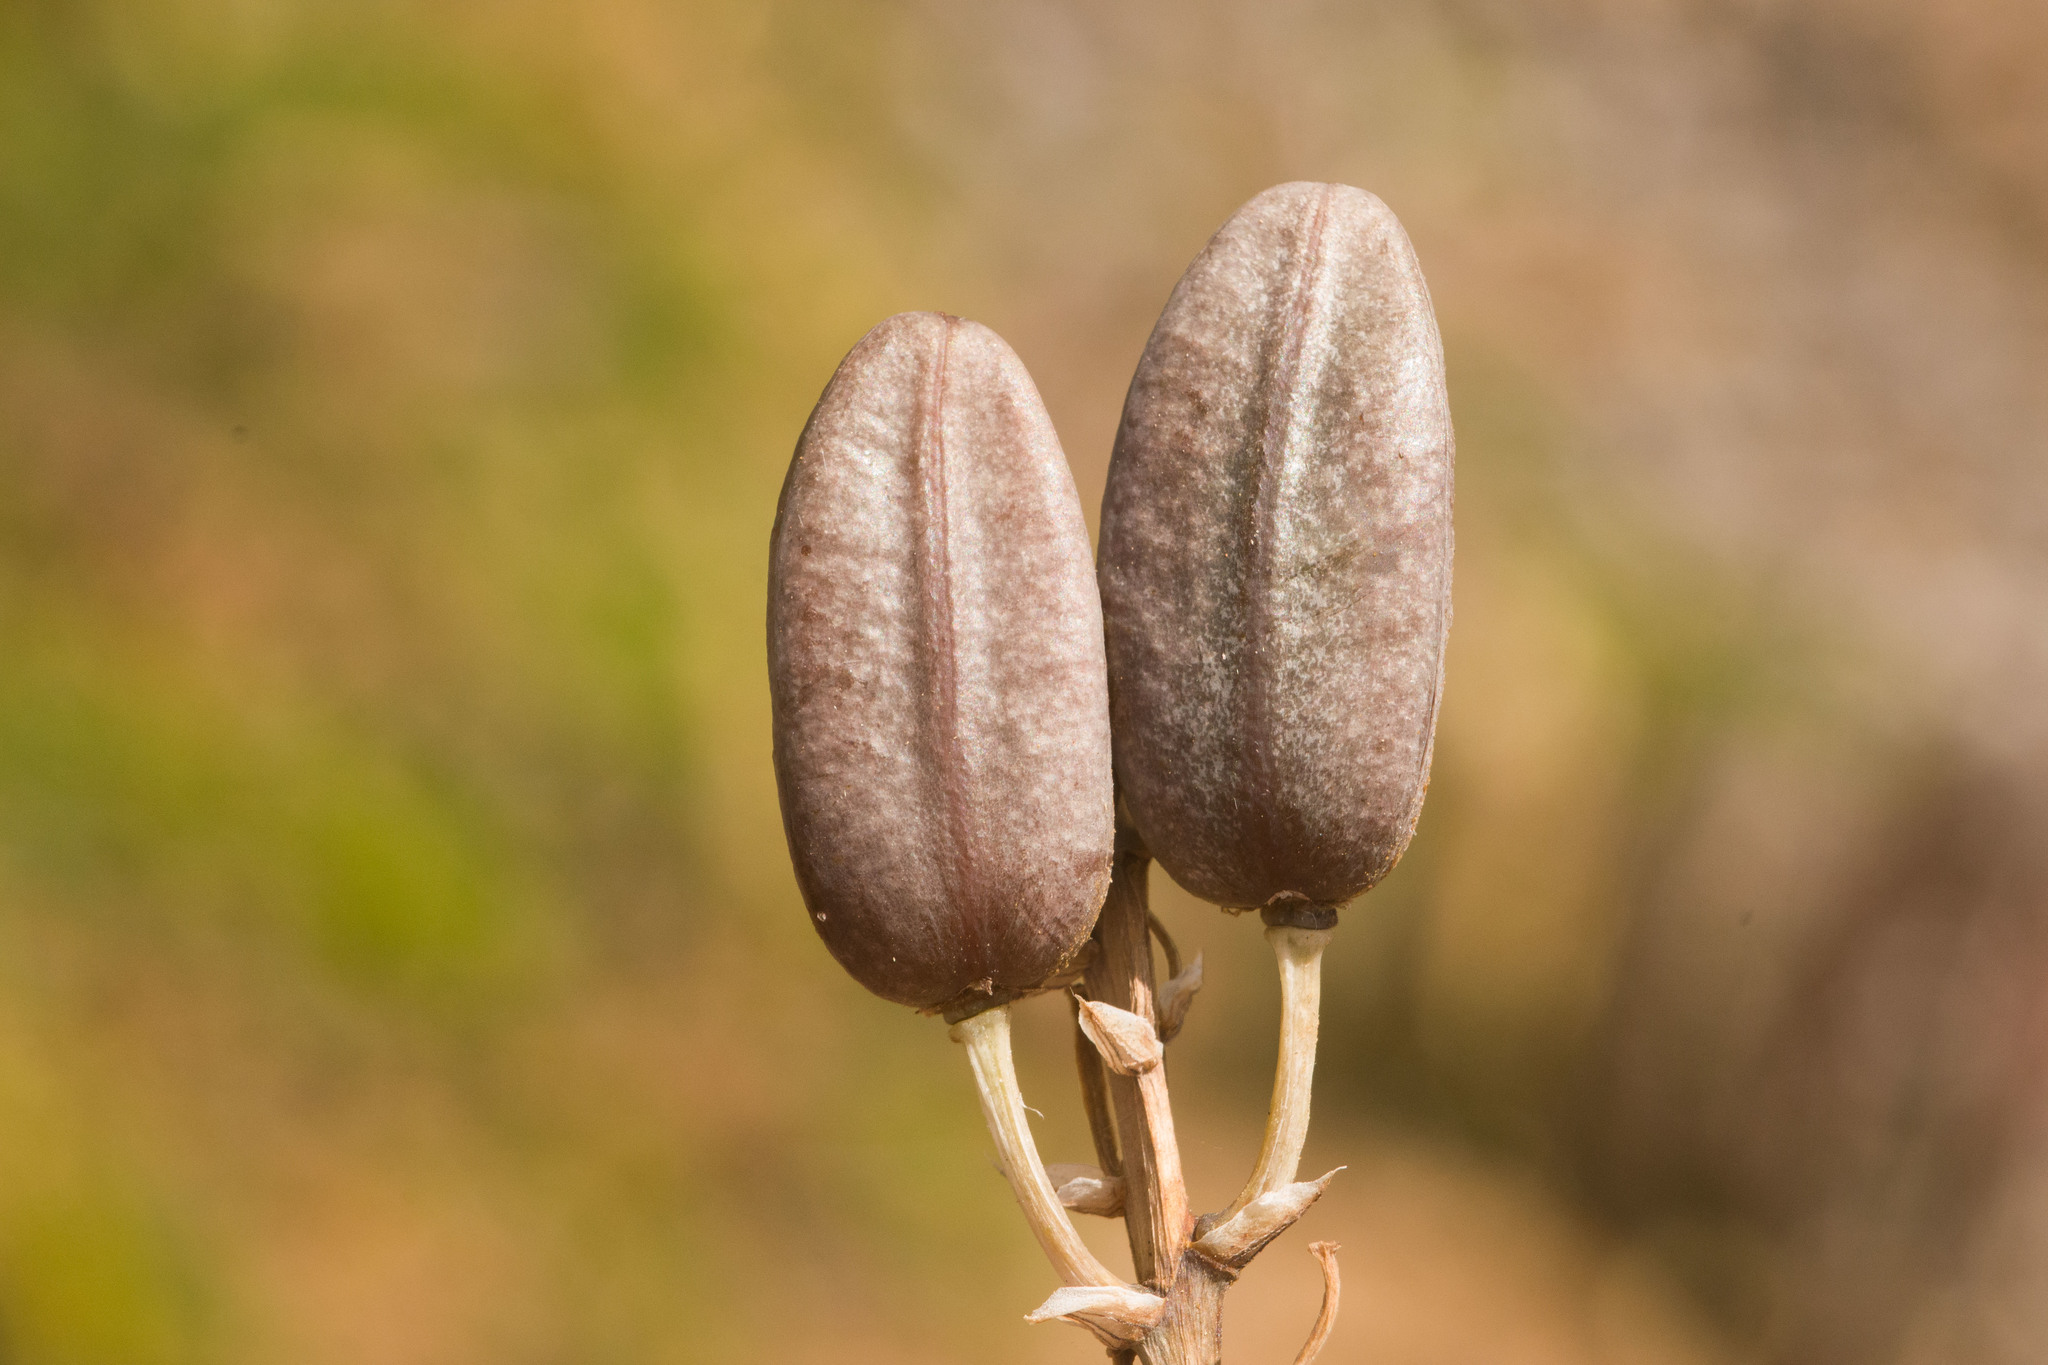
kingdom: Plantae
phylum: Tracheophyta
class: Liliopsida
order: Asparagales
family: Asphodelaceae
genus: Aloe
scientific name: Aloe littoralis
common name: Luanda tree aloe
